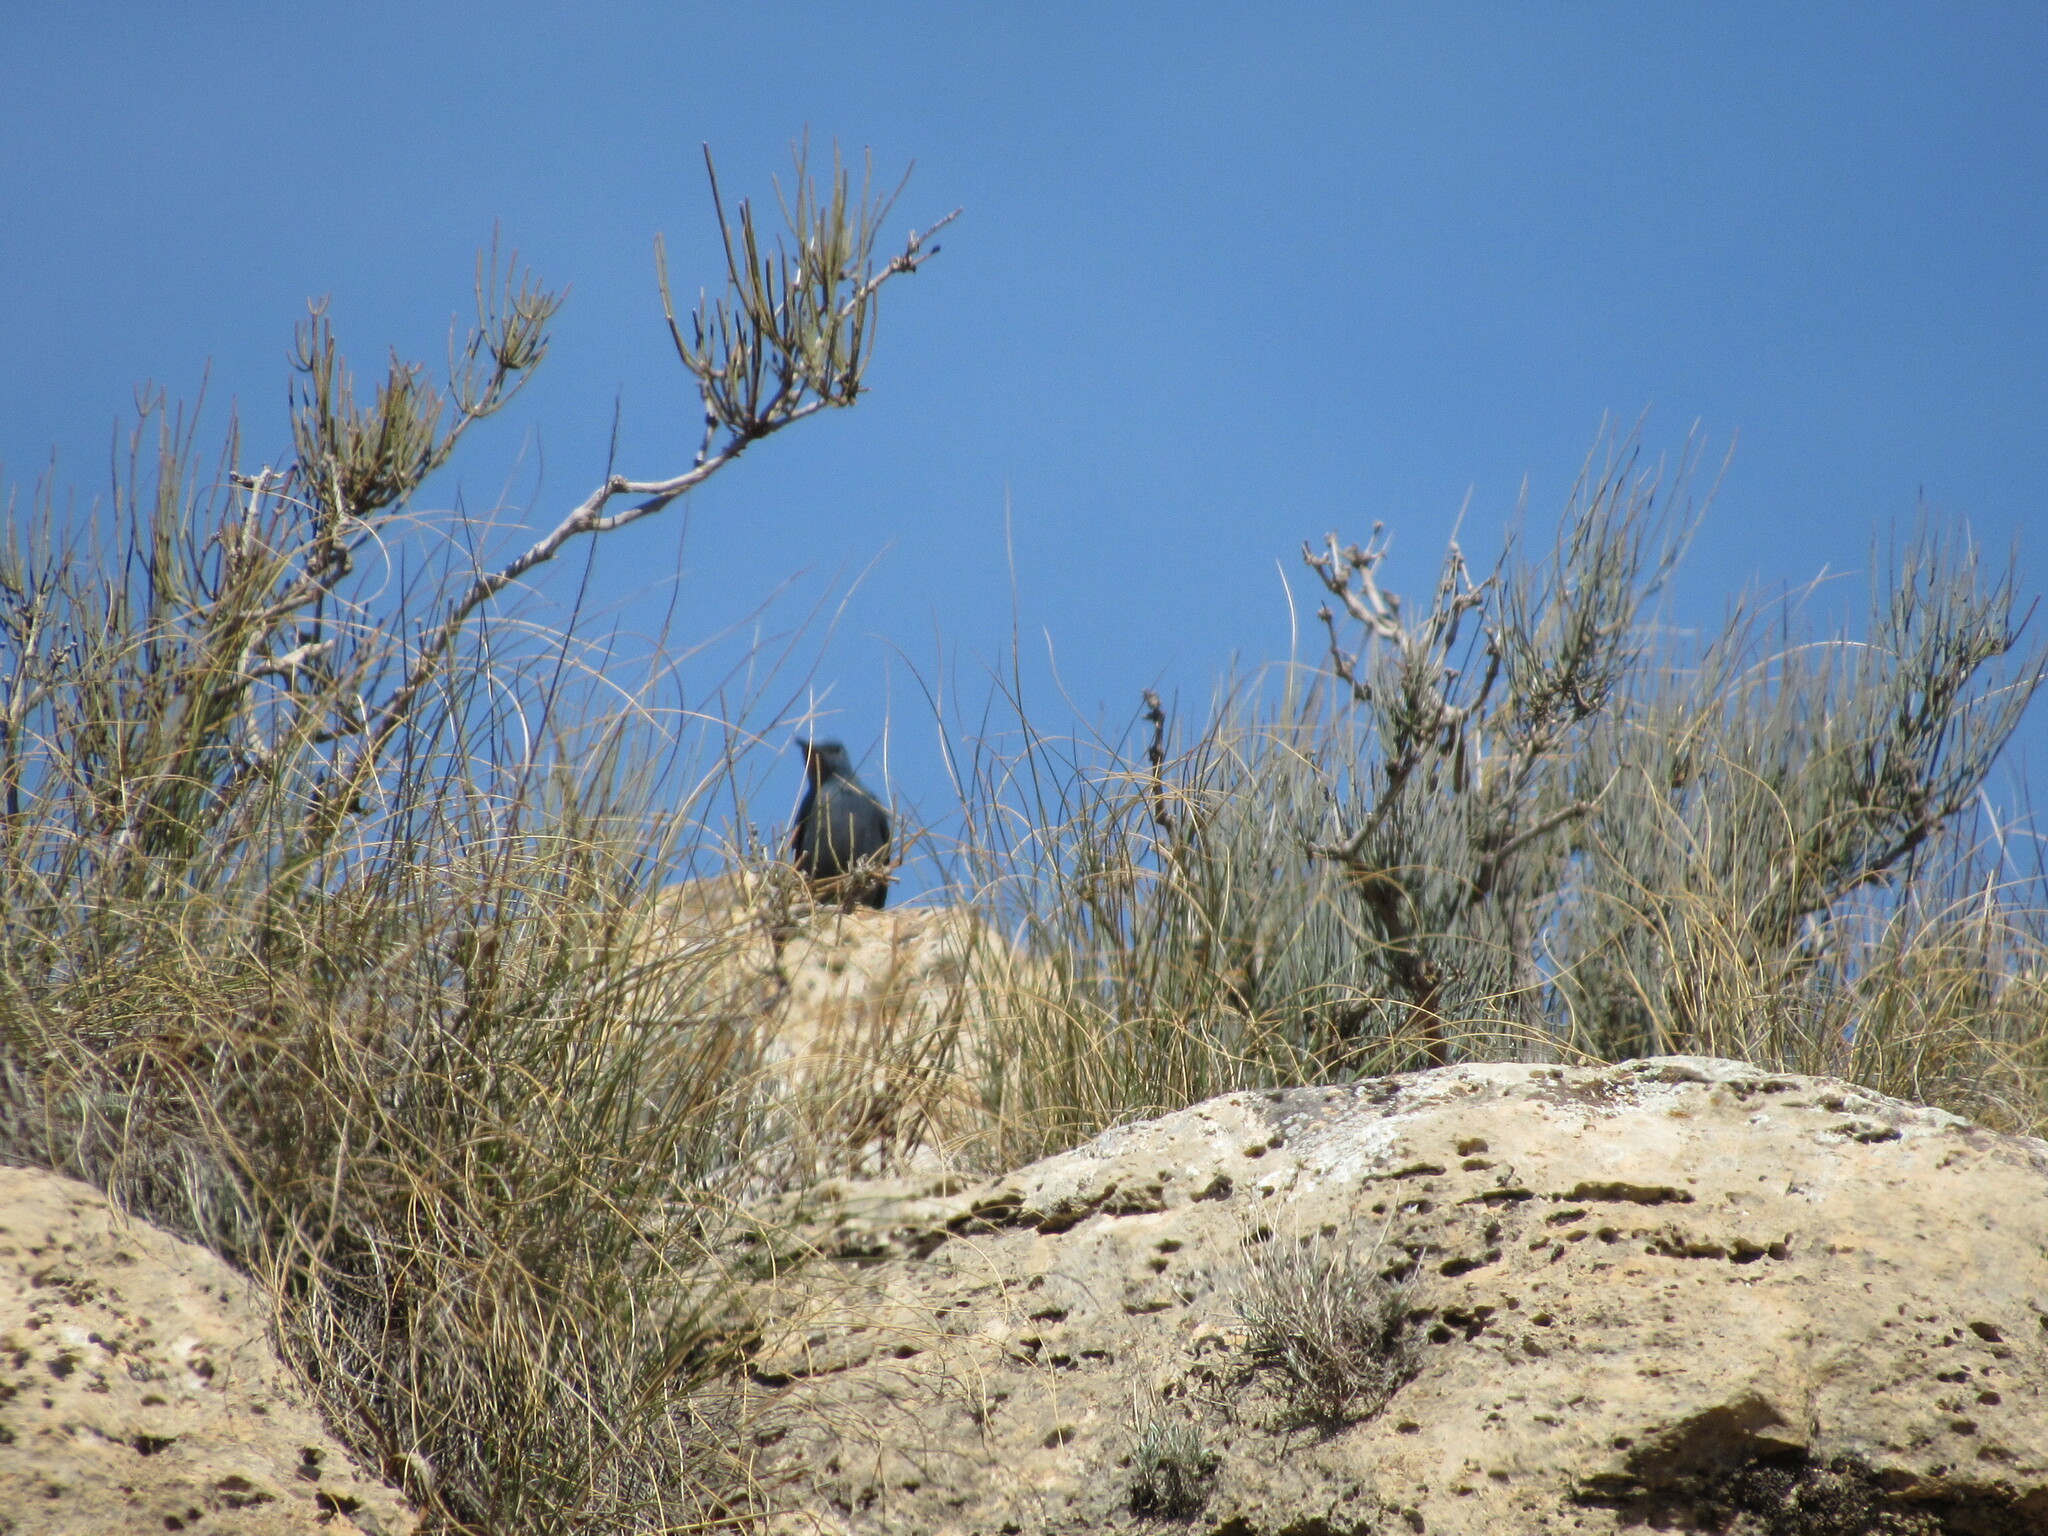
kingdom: Animalia
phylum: Chordata
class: Aves
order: Passeriformes
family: Muscicapidae
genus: Monticola
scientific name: Monticola solitarius
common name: Blue rock thrush
